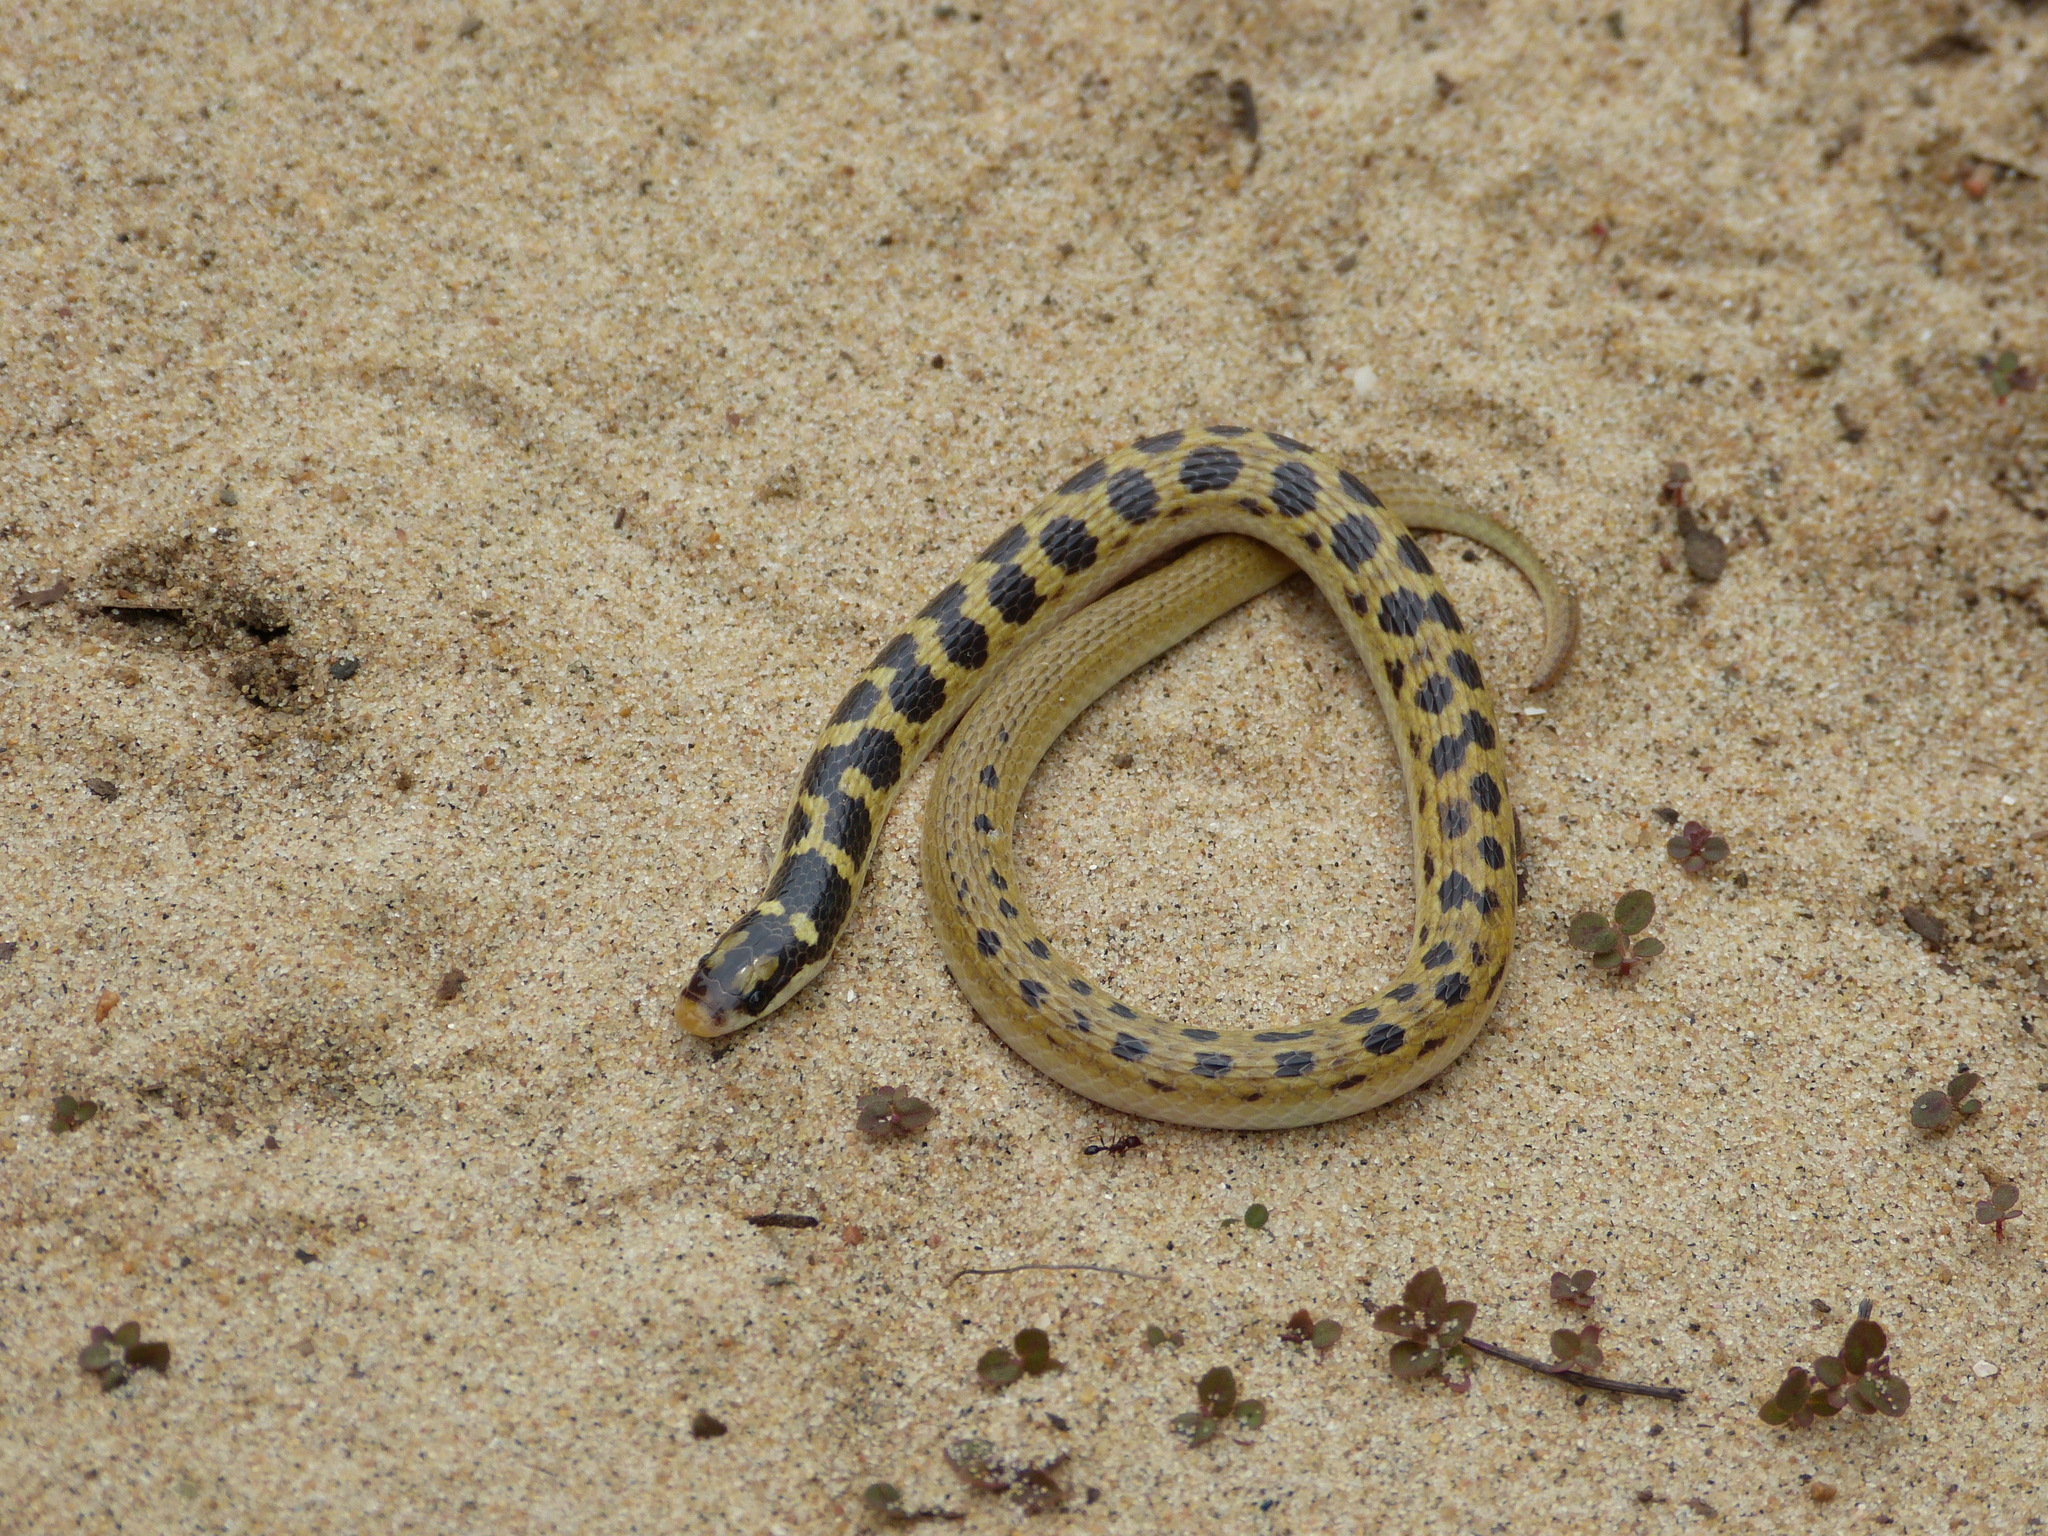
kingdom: Animalia
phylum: Chordata
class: Squamata
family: Prosymnidae
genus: Prosymna
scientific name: Prosymna janii
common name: Mozambique shovel-snout
